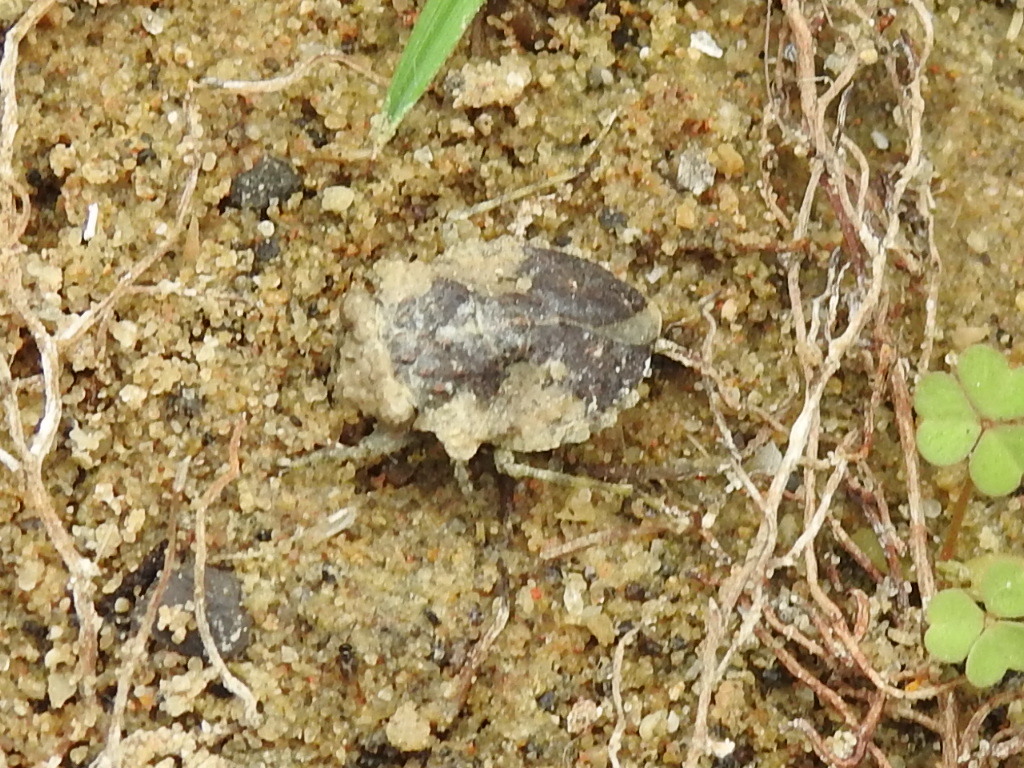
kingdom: Animalia
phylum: Arthropoda
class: Insecta
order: Hemiptera
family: Gelastocoridae
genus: Gelastocoris
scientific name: Gelastocoris oculatus
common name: Toad bug
